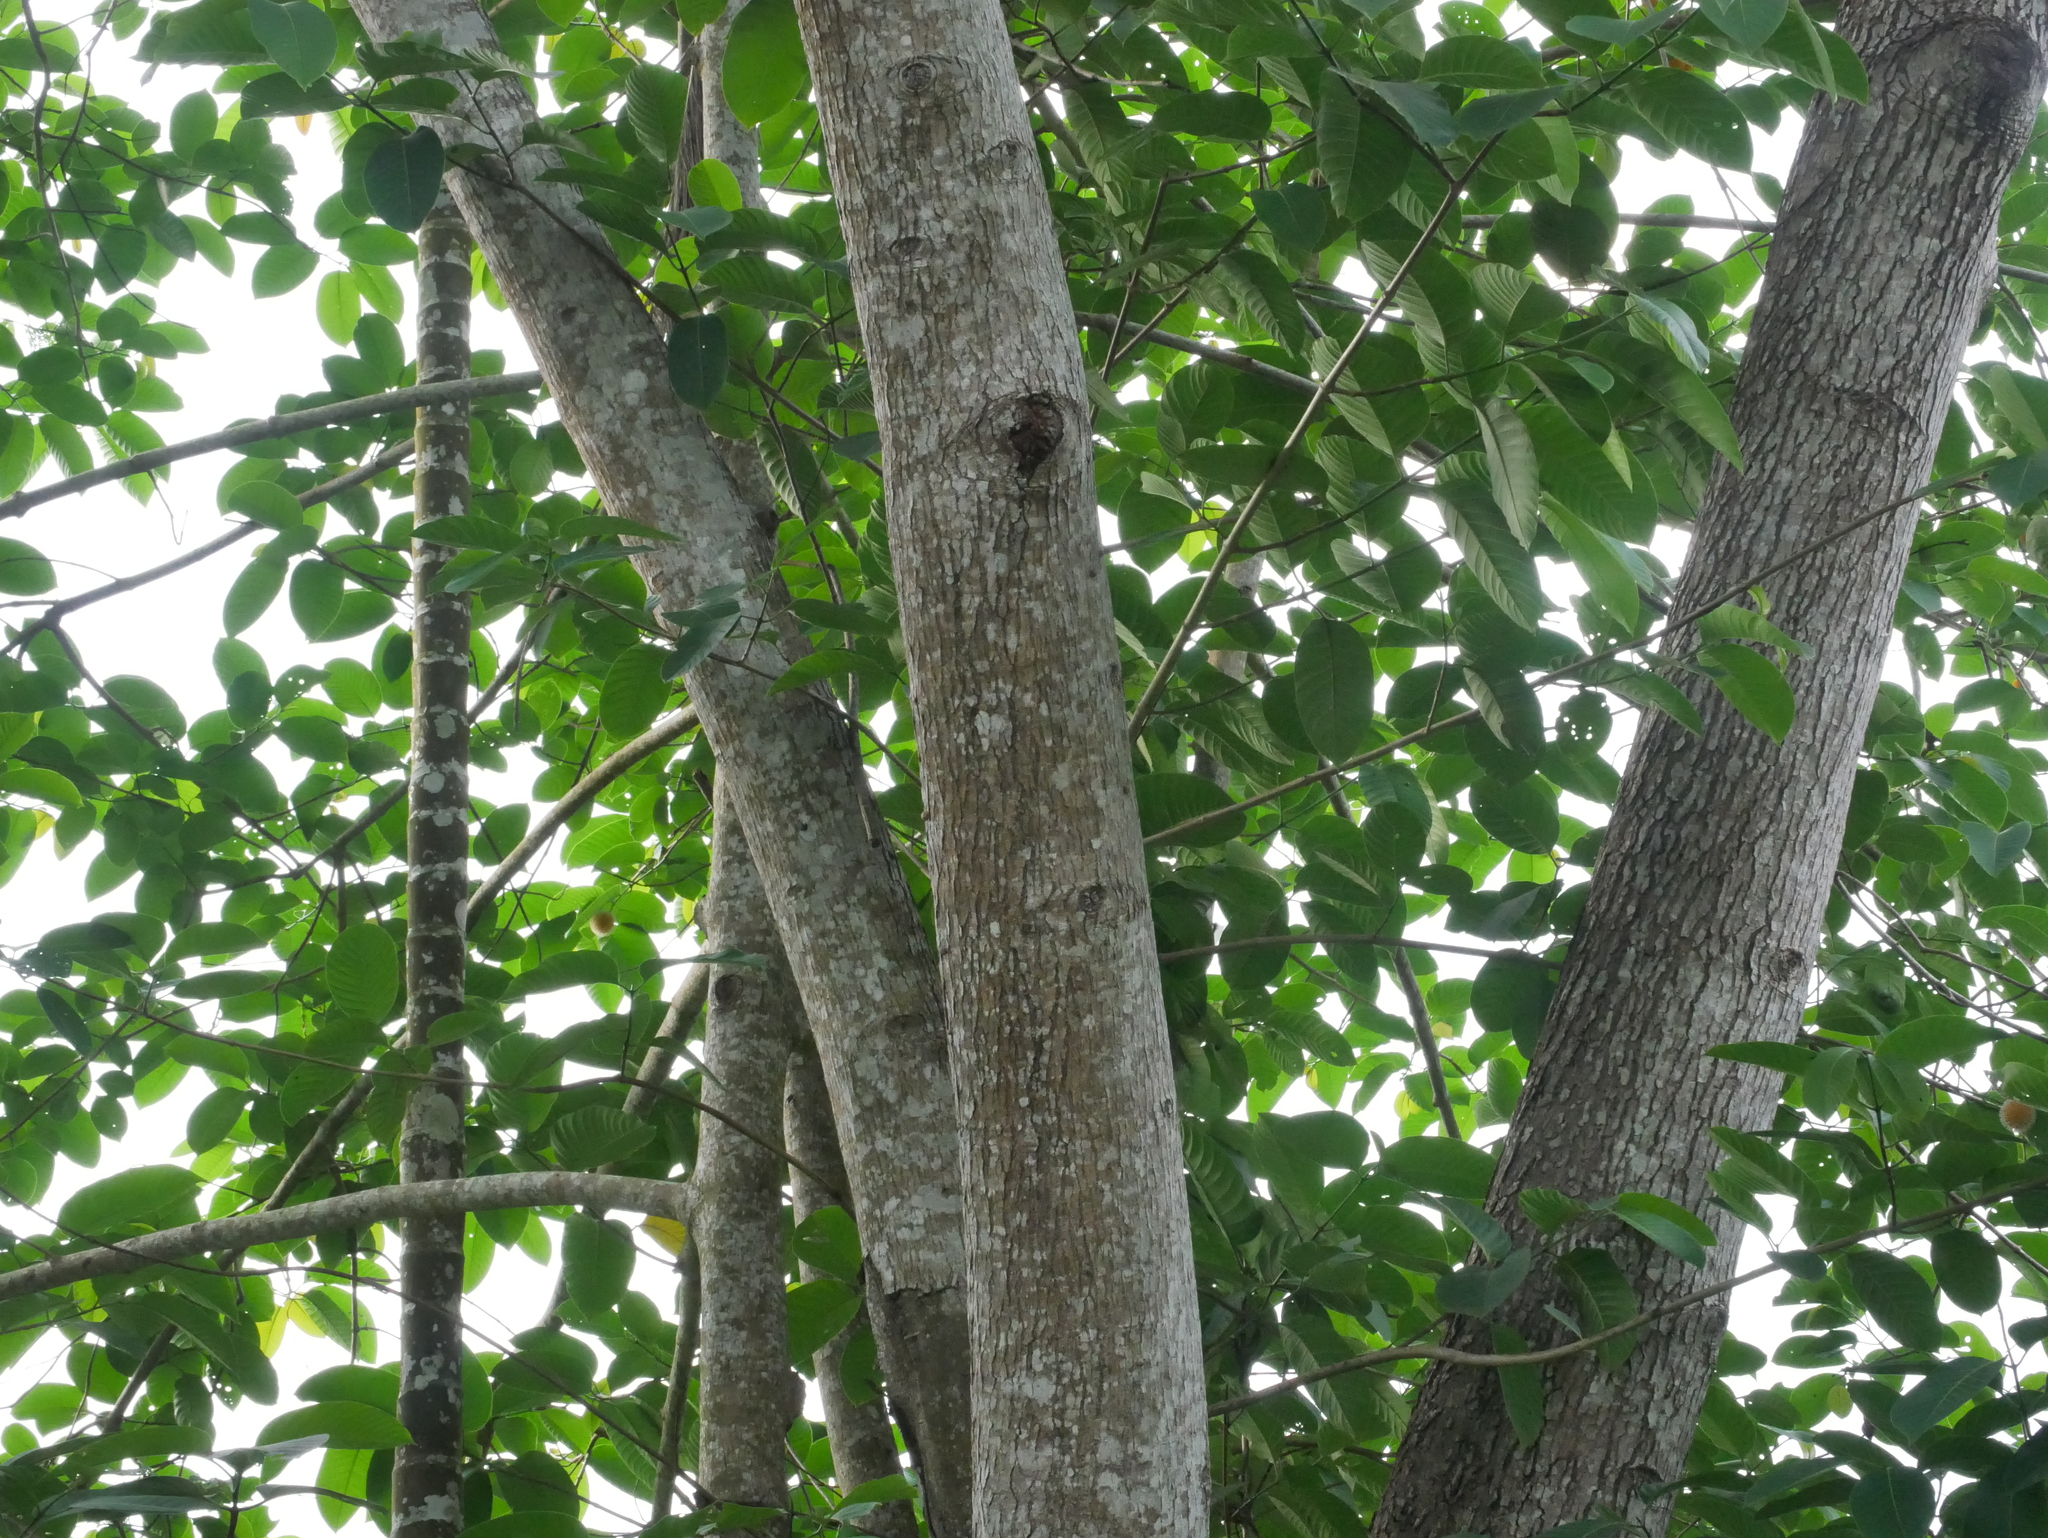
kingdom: Plantae
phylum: Tracheophyta
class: Magnoliopsida
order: Gentianales
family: Rubiaceae
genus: Neolamarckia
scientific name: Neolamarckia cadamba
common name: Leichhardt-pine
